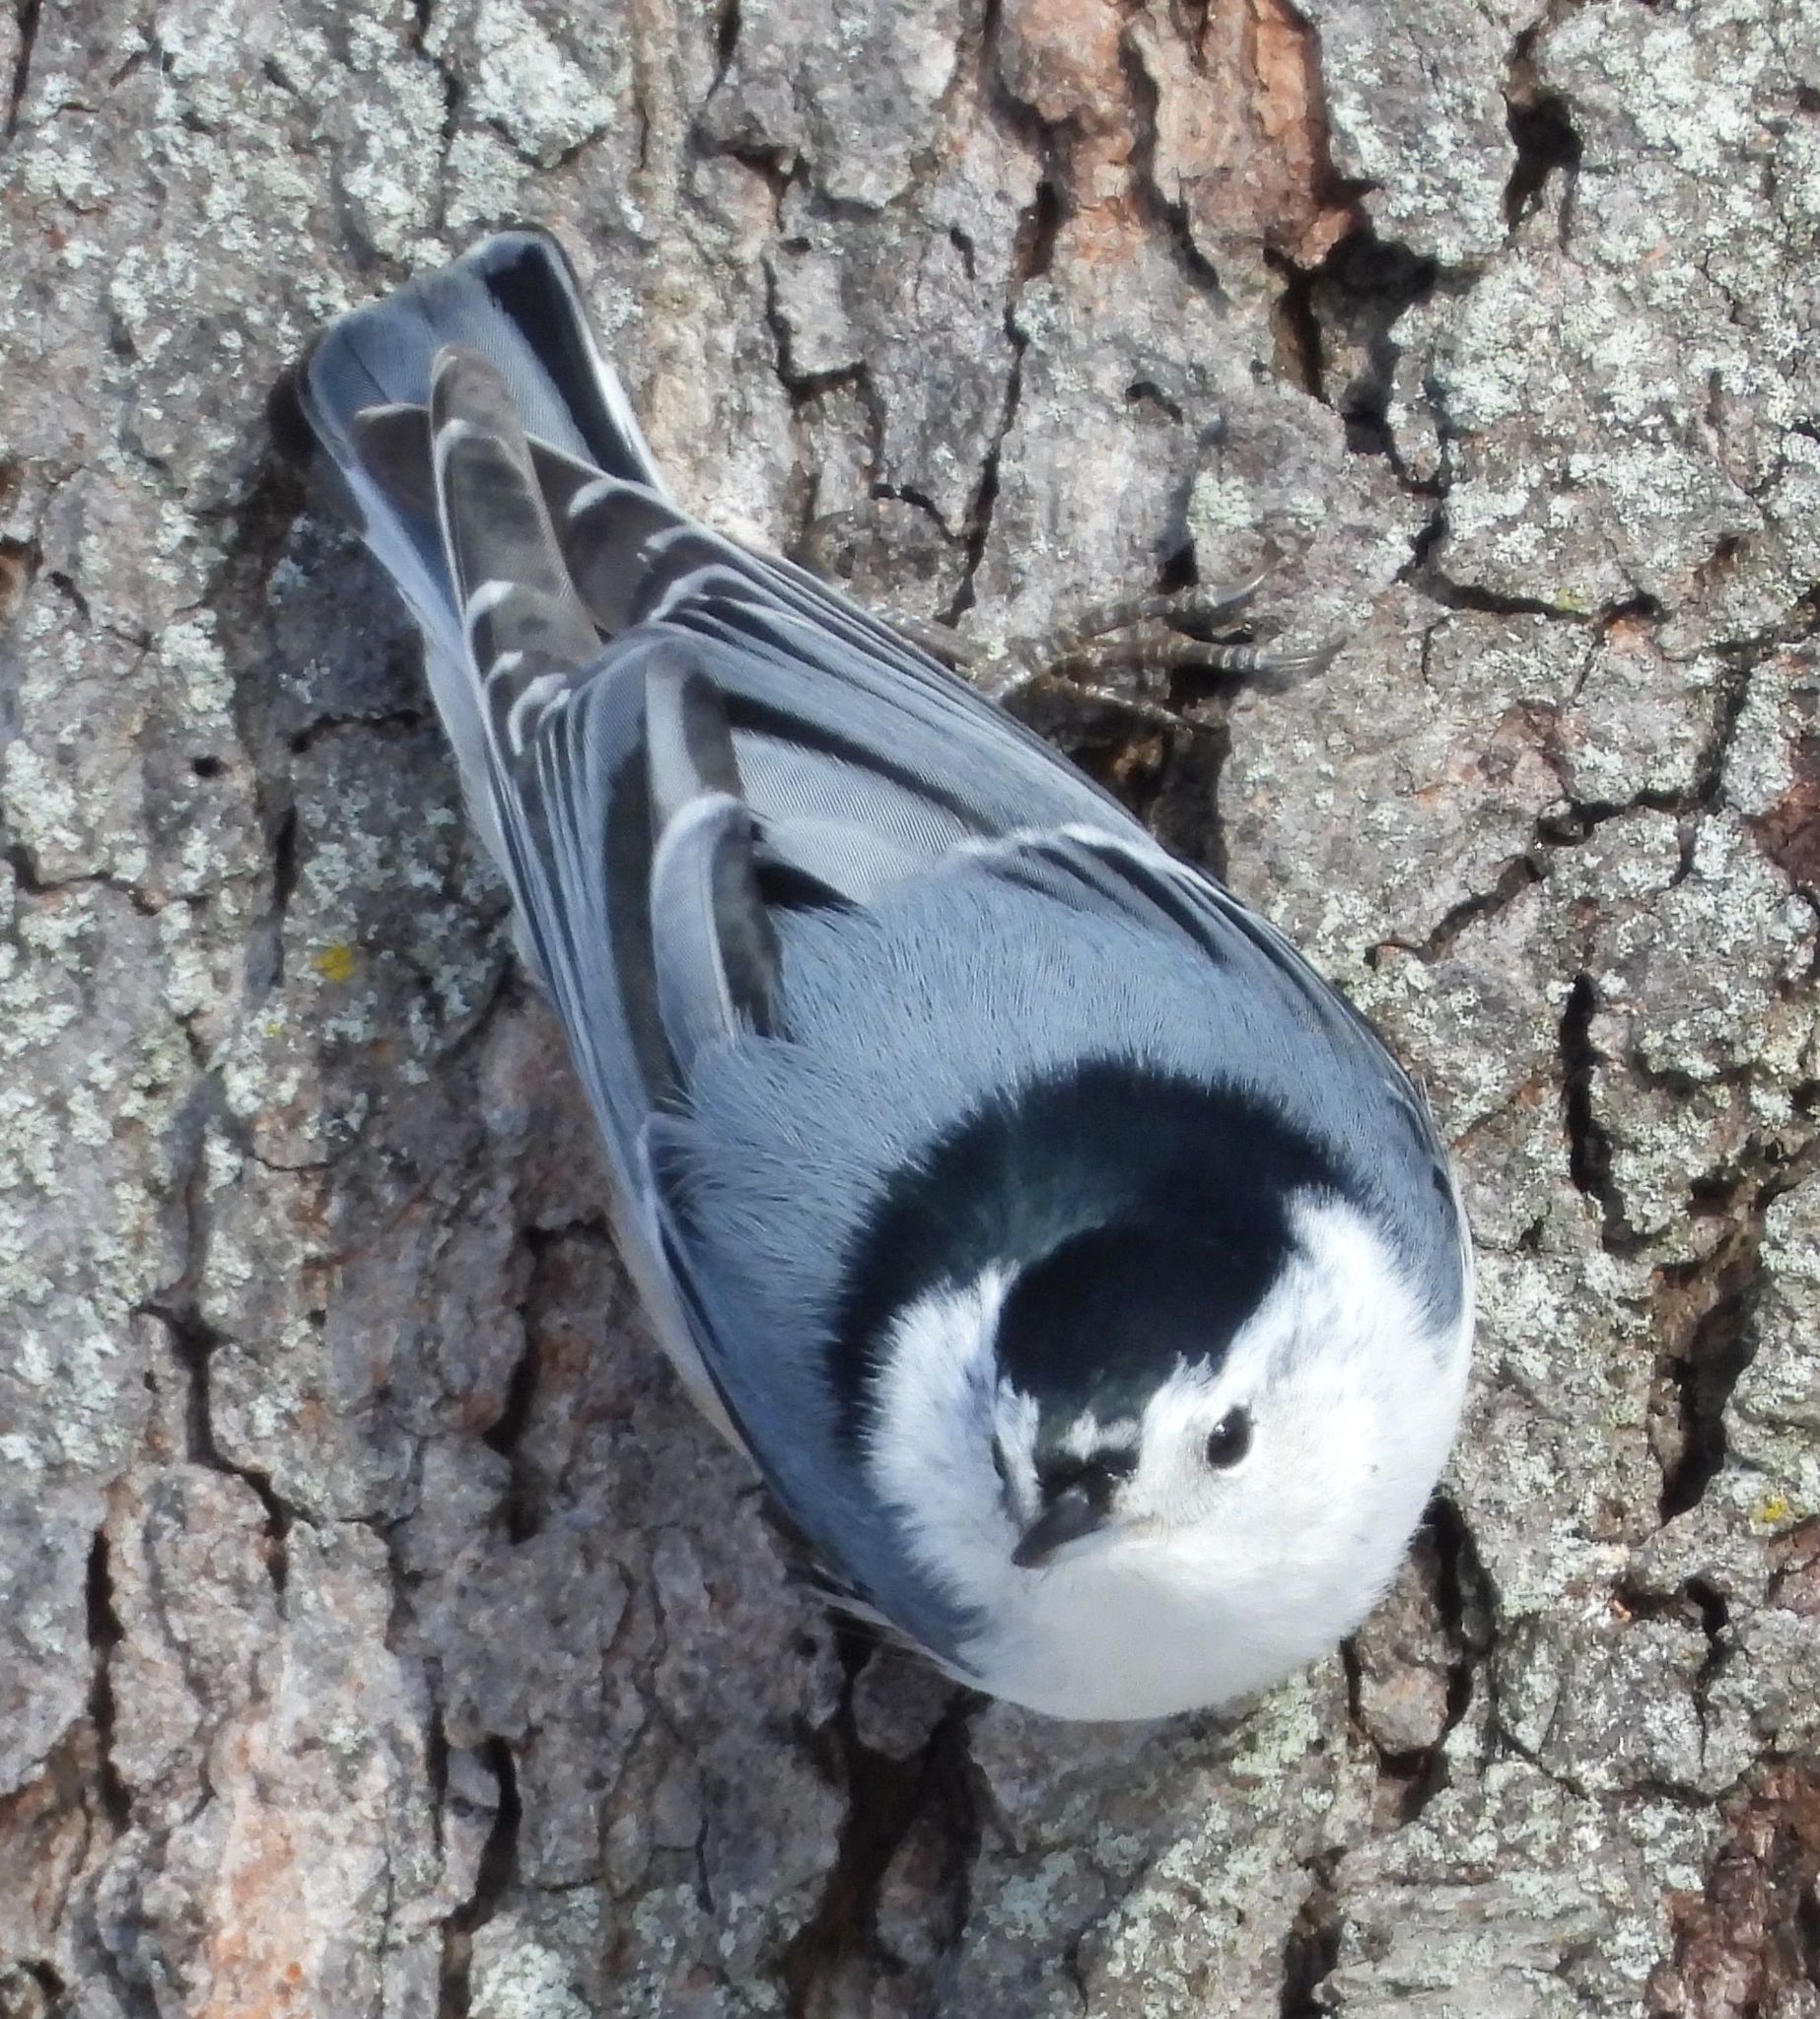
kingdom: Animalia
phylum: Chordata
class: Aves
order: Passeriformes
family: Sittidae
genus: Sitta
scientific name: Sitta carolinensis
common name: White-breasted nuthatch
